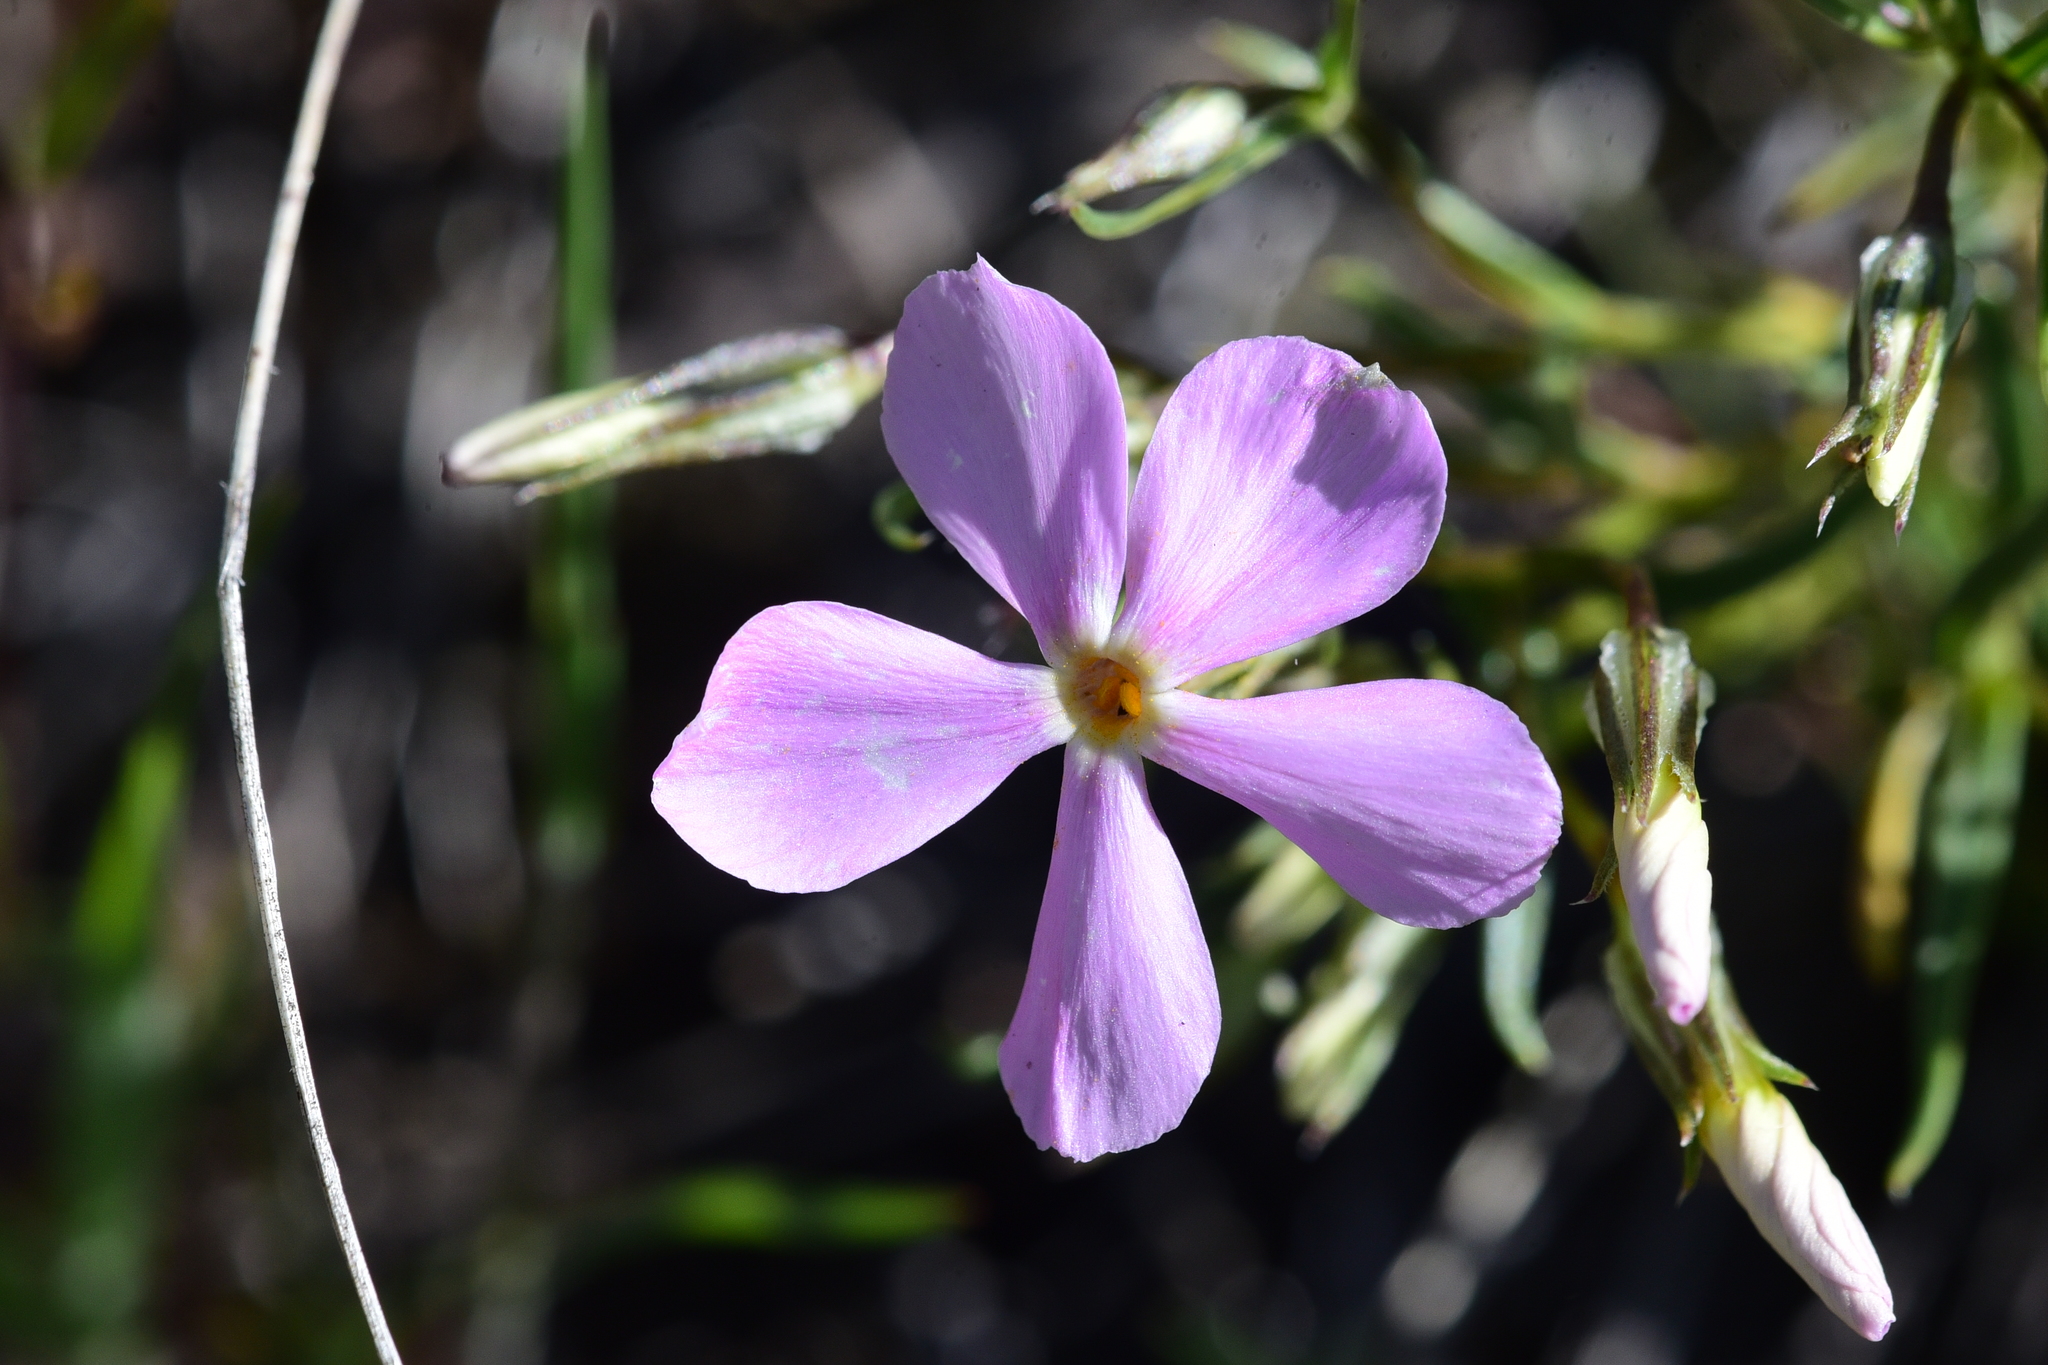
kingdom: Plantae
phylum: Tracheophyta
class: Magnoliopsida
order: Ericales
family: Polemoniaceae
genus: Phlox
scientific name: Phlox longifolia
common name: Longleaf phlox
